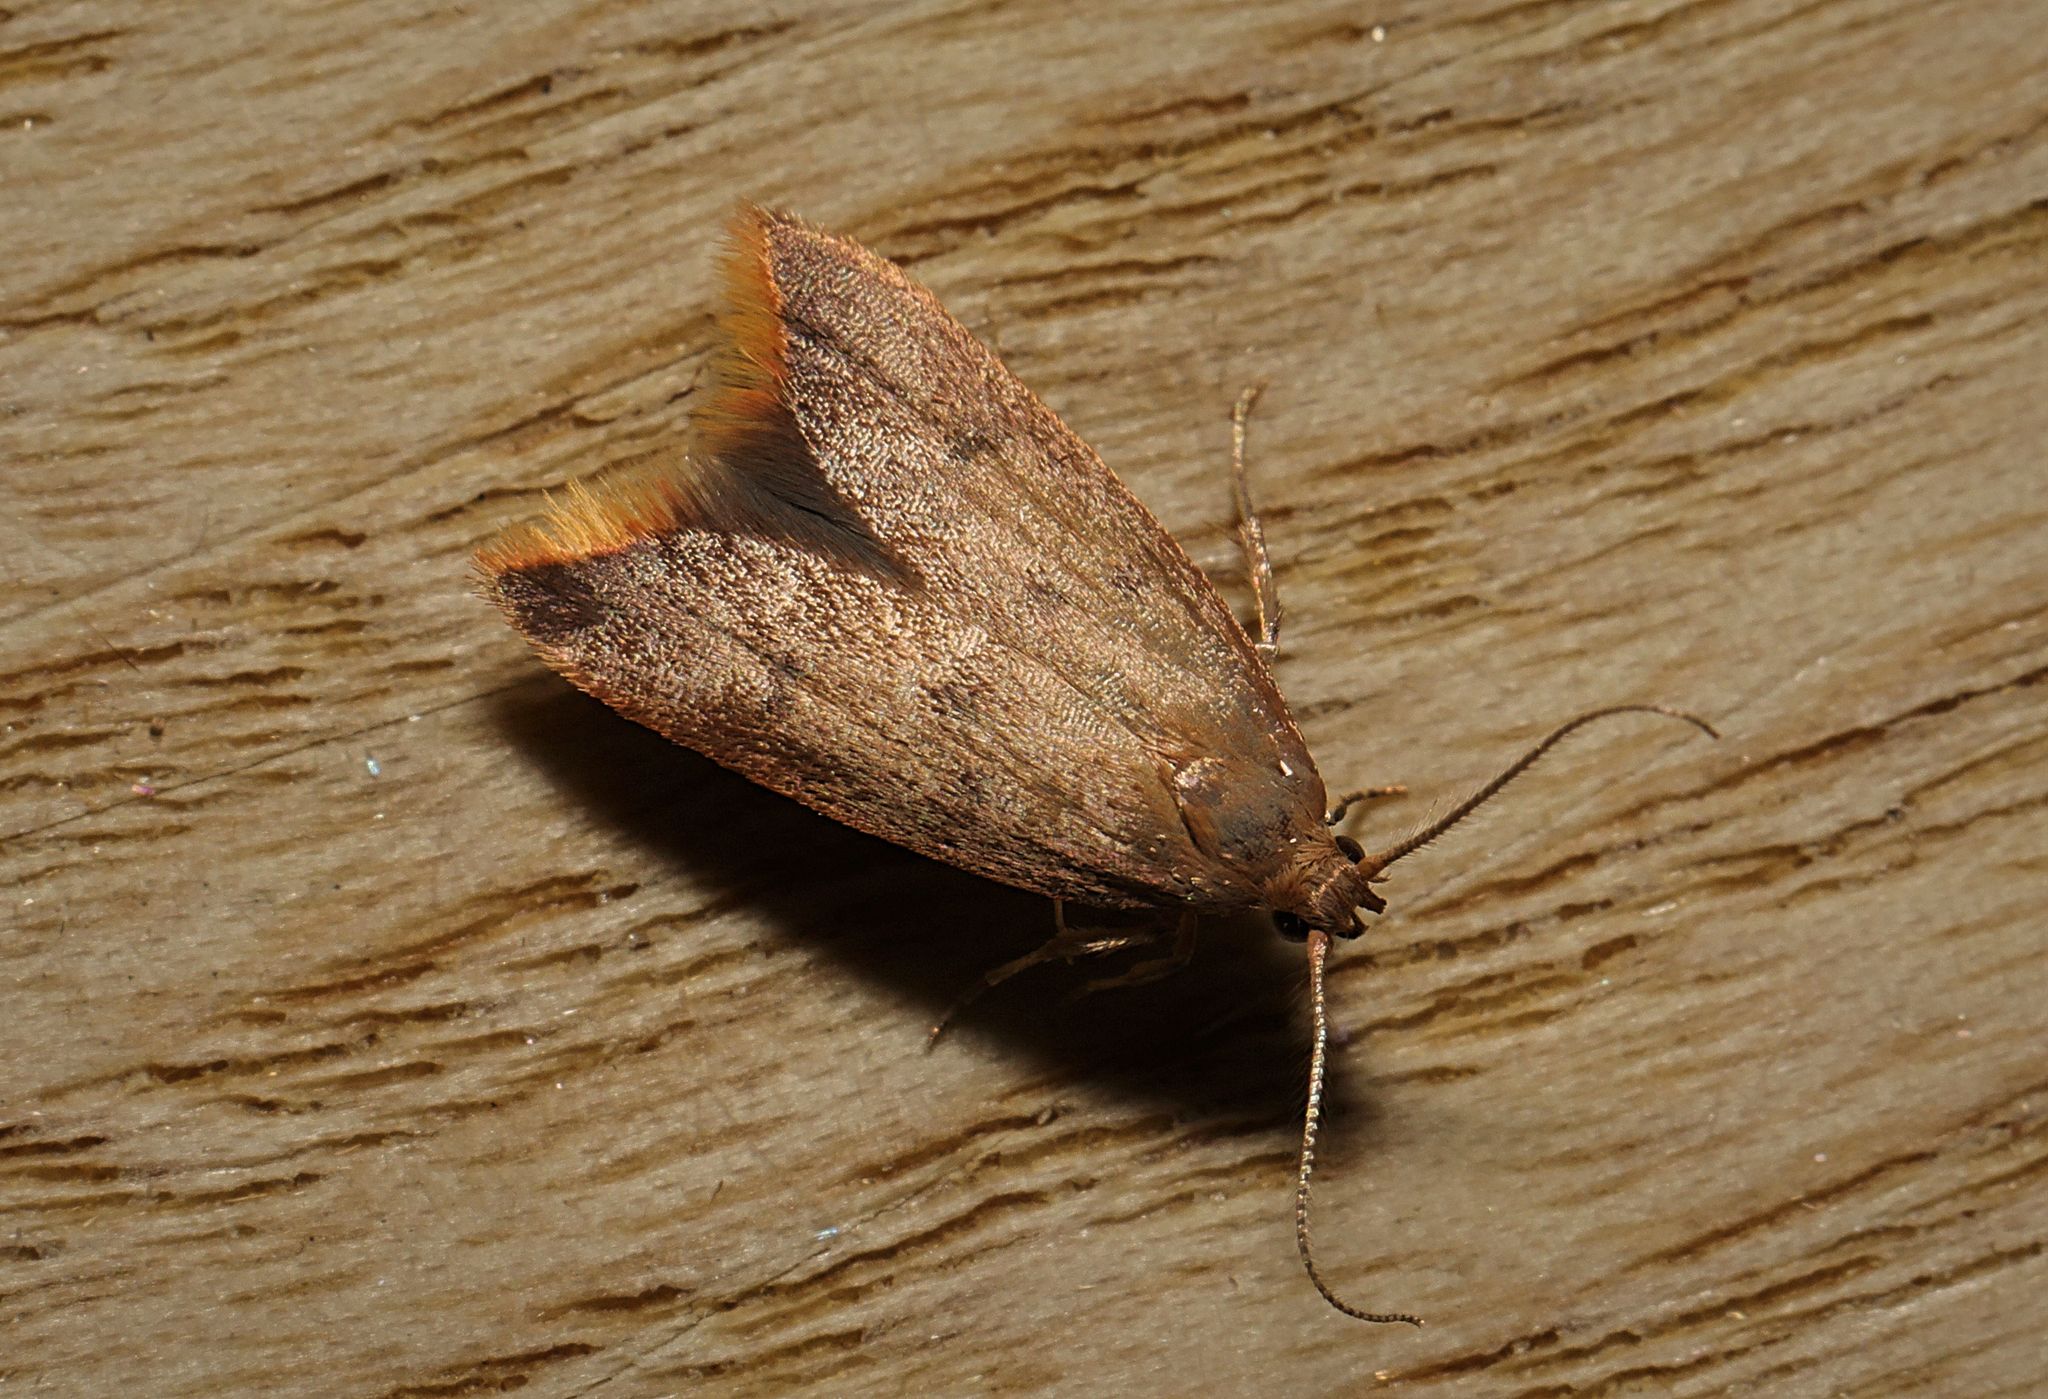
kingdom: Animalia
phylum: Arthropoda
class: Insecta
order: Lepidoptera
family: Oecophoridae
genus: Tachystola
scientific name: Tachystola acroxantha
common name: Ruddy streak
